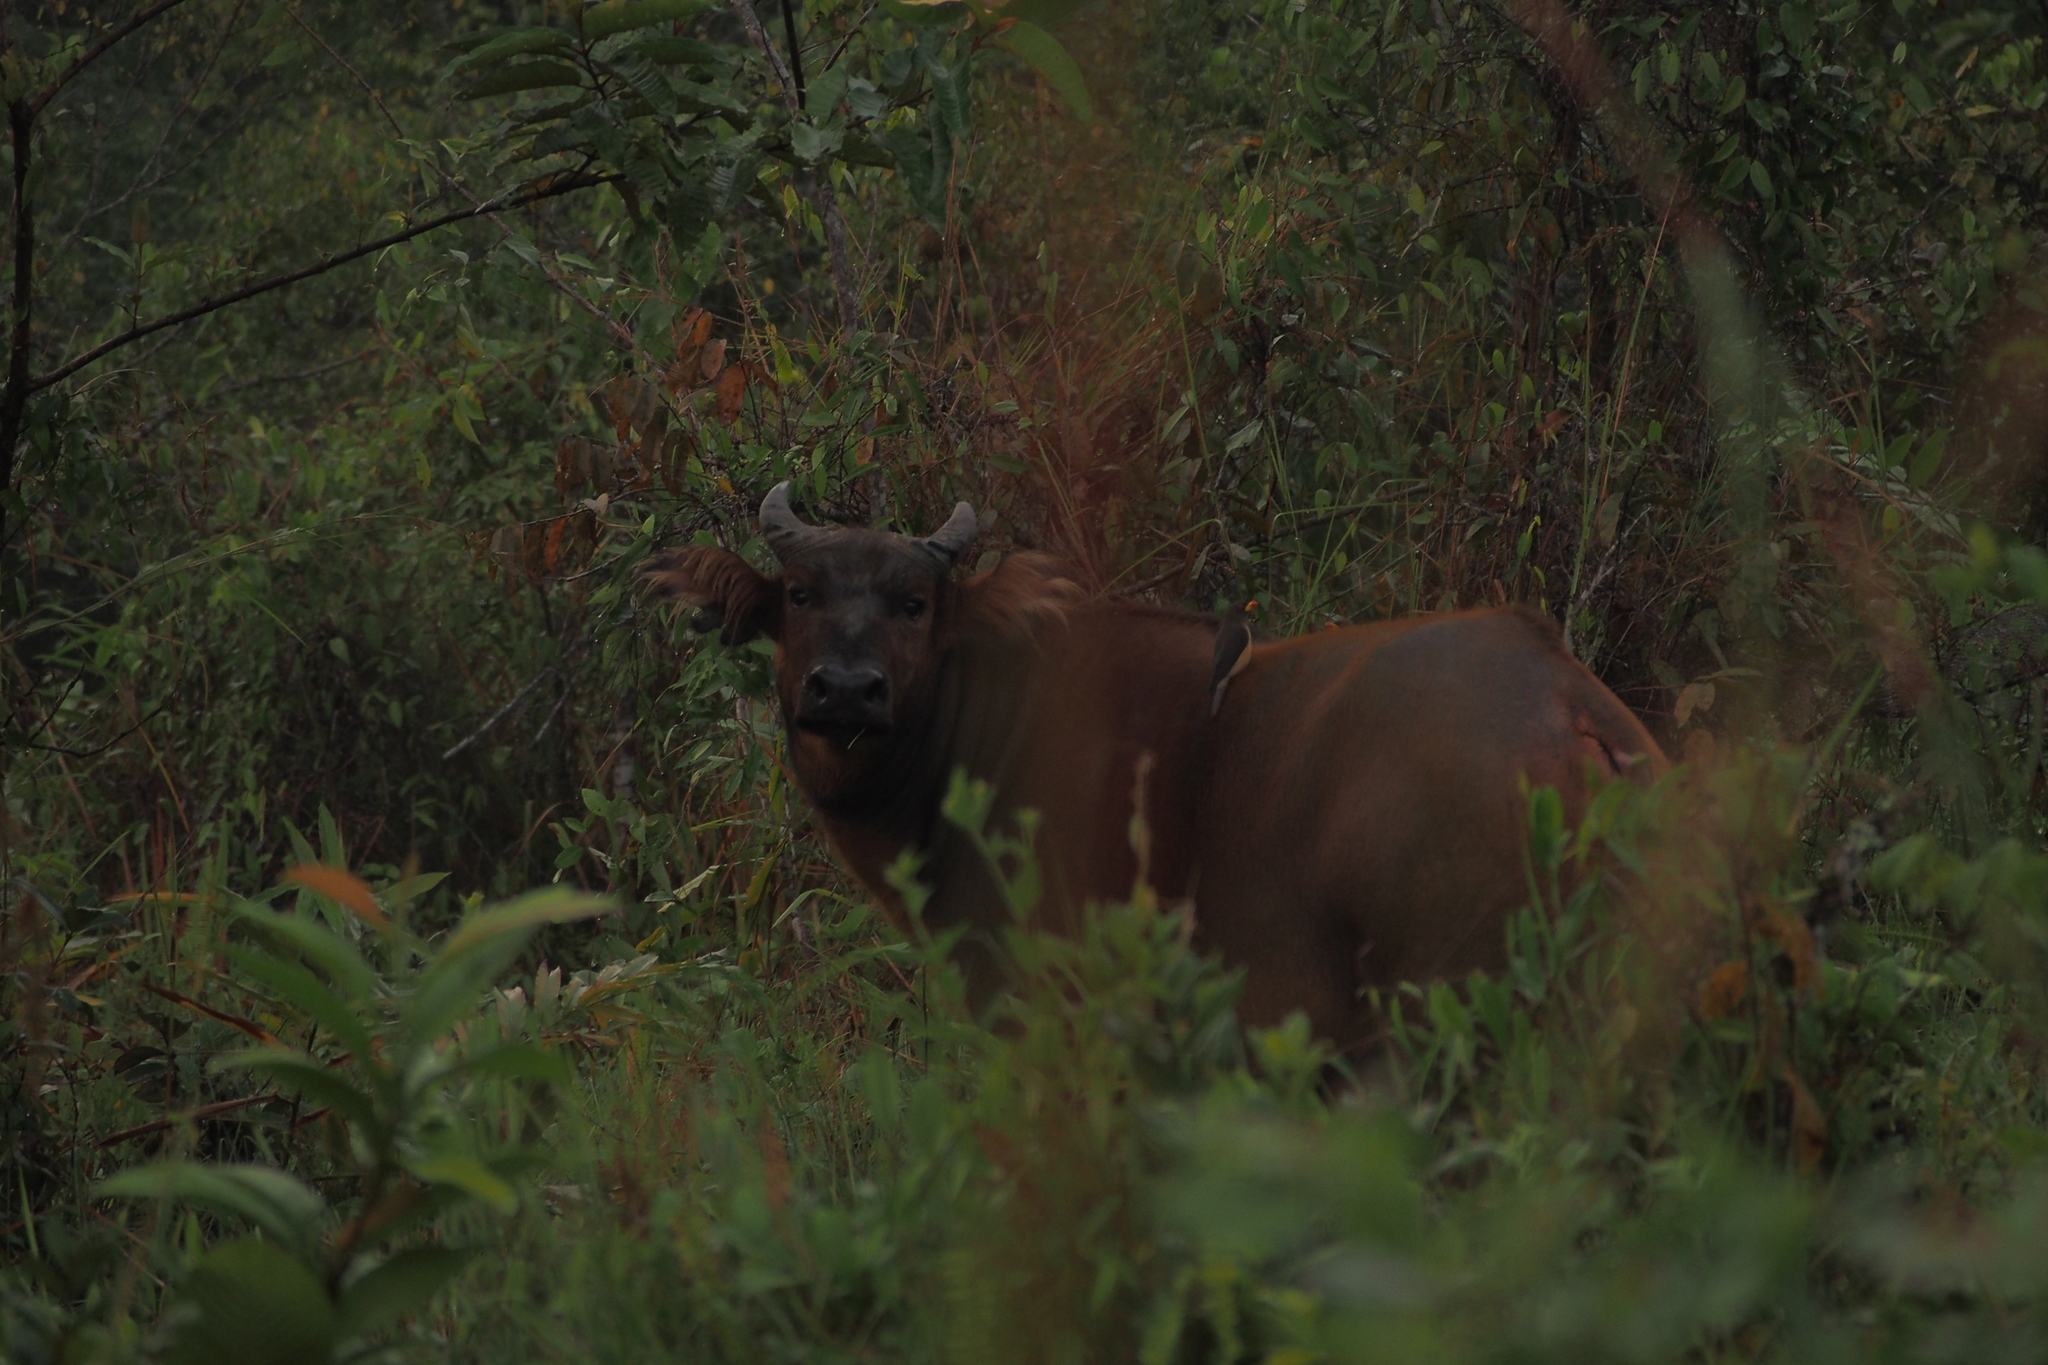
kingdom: Animalia
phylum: Chordata
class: Mammalia
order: Artiodactyla
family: Bovidae
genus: Syncerus
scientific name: Syncerus caffer
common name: African buffalo
